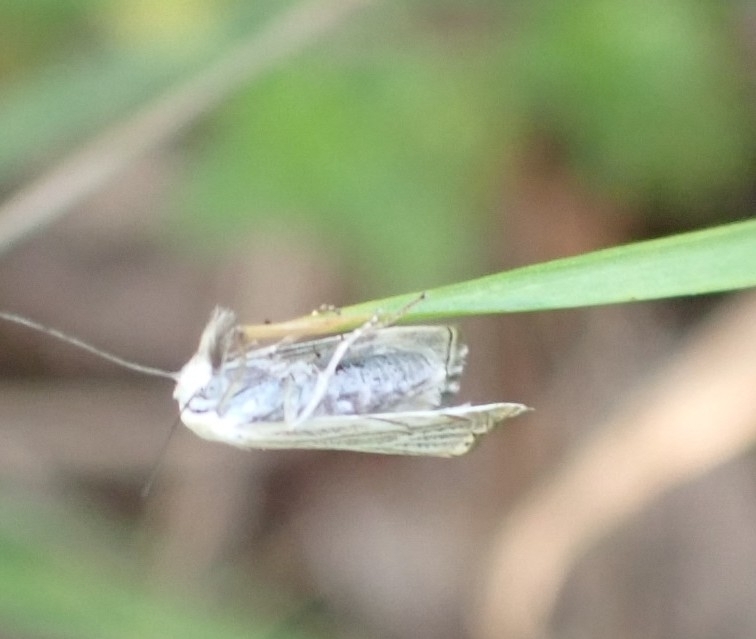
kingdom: Animalia
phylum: Arthropoda
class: Insecta
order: Lepidoptera
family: Crambidae
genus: Chrysoteuchia
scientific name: Chrysoteuchia culmella
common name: Garden grass-veneer
